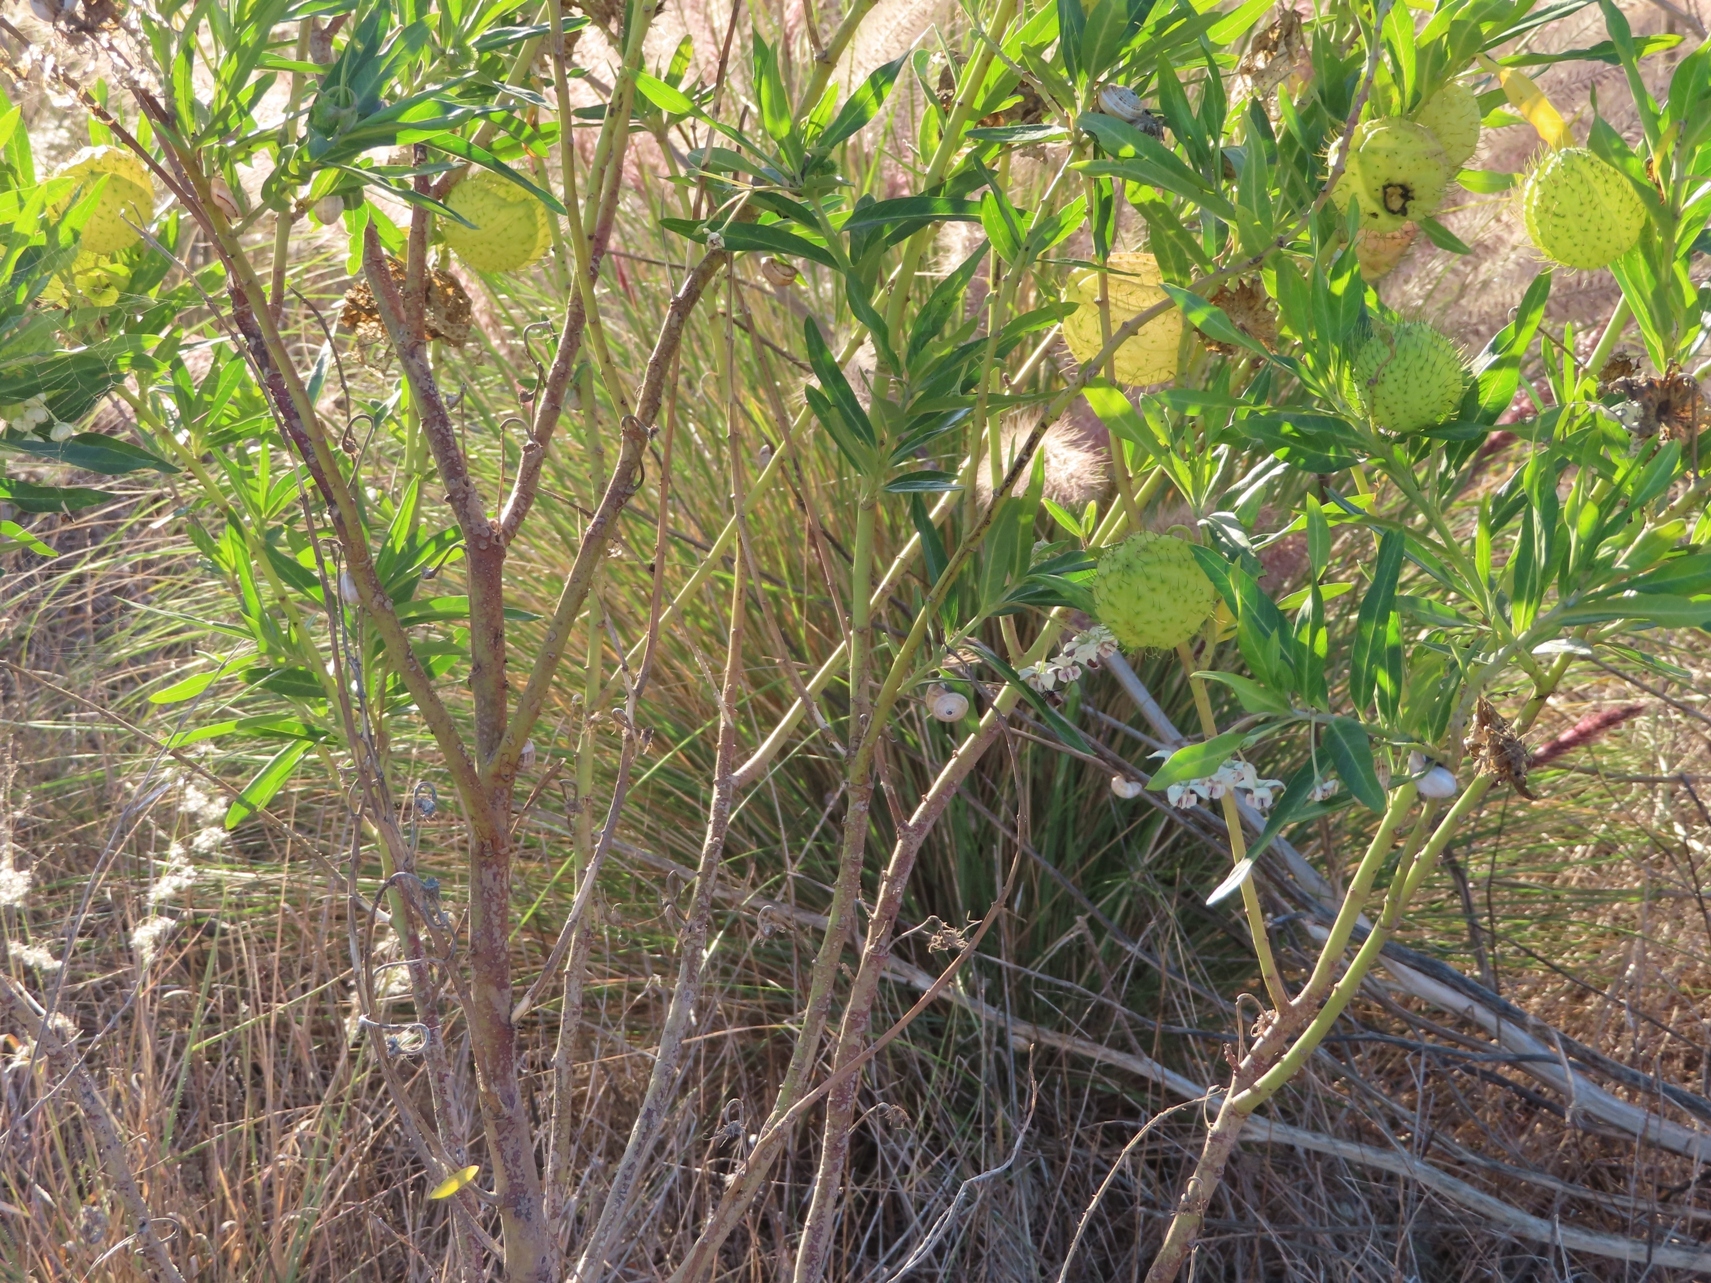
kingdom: Plantae
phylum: Tracheophyta
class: Magnoliopsida
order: Gentianales
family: Apocynaceae
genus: Gomphocarpus
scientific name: Gomphocarpus physocarpus
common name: Balloon cotton bush
